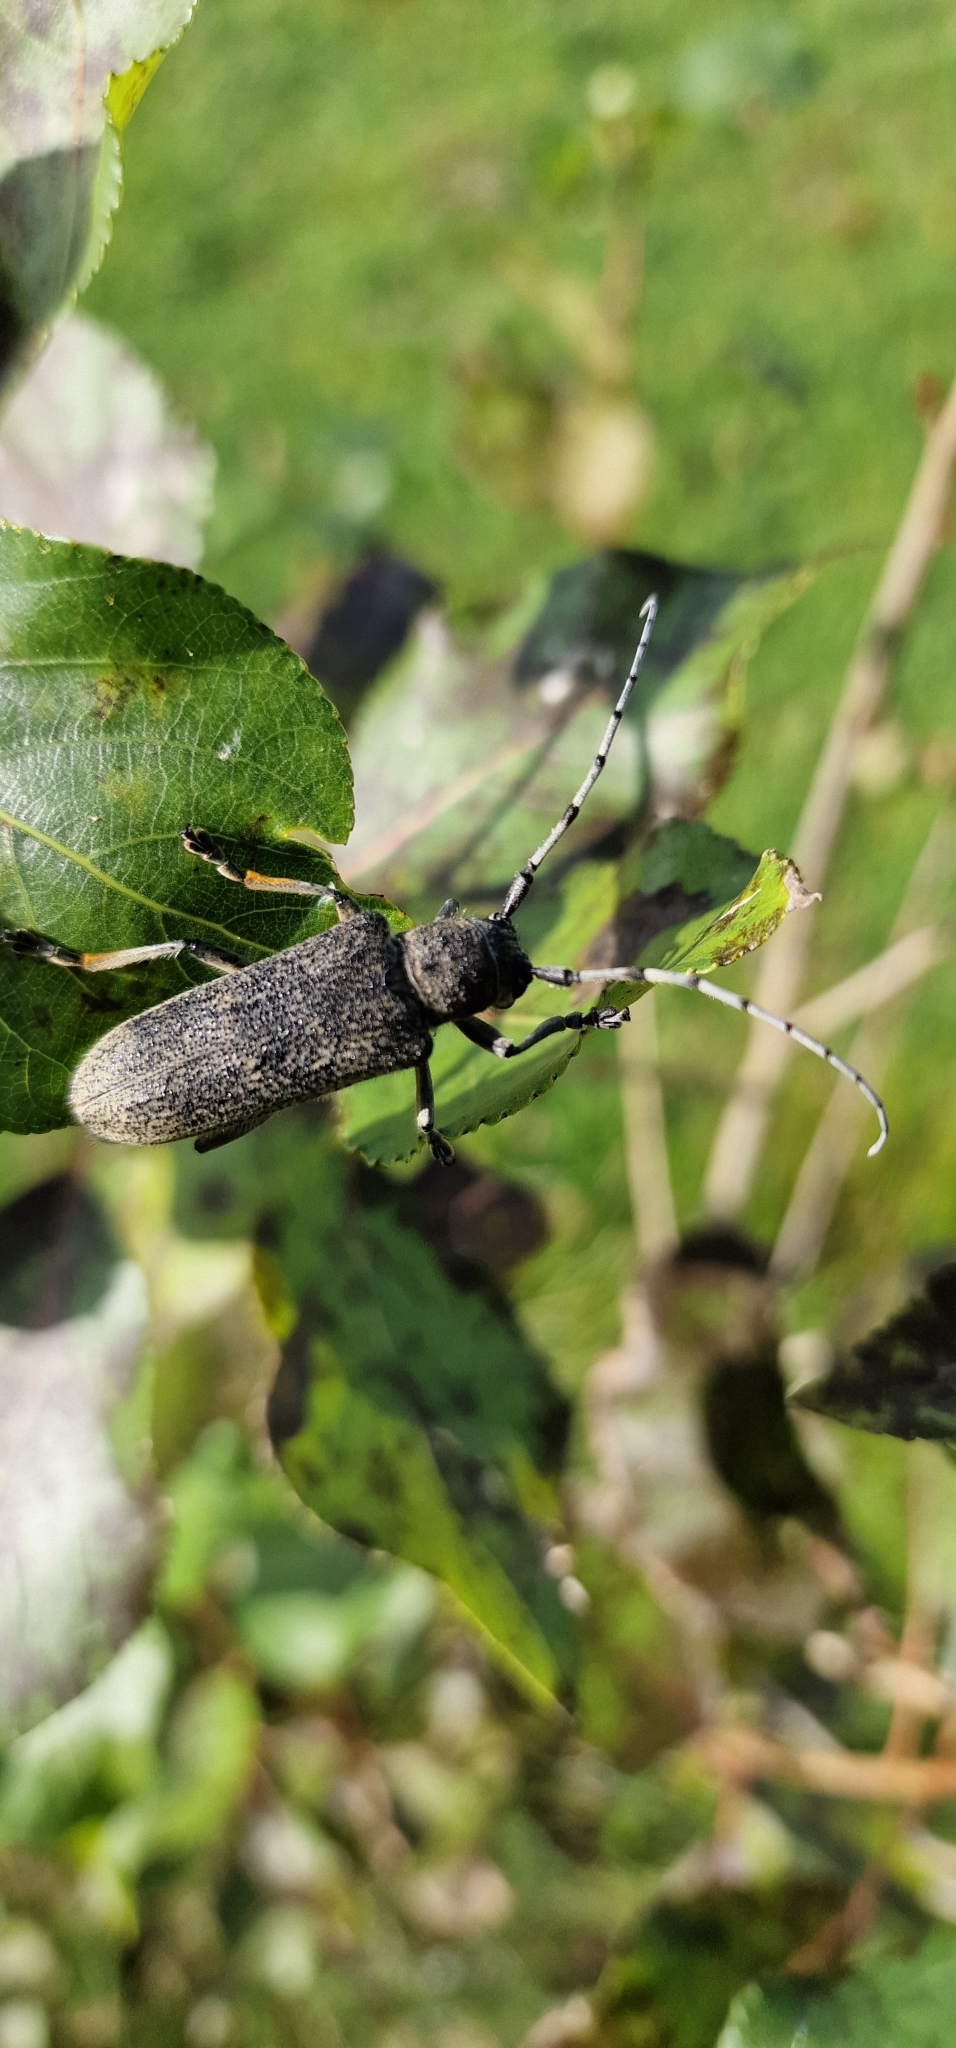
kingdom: Animalia
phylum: Arthropoda
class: Insecta
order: Coleoptera
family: Cerambycidae
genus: Saperda
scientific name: Saperda carcharias
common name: Poplar borer
